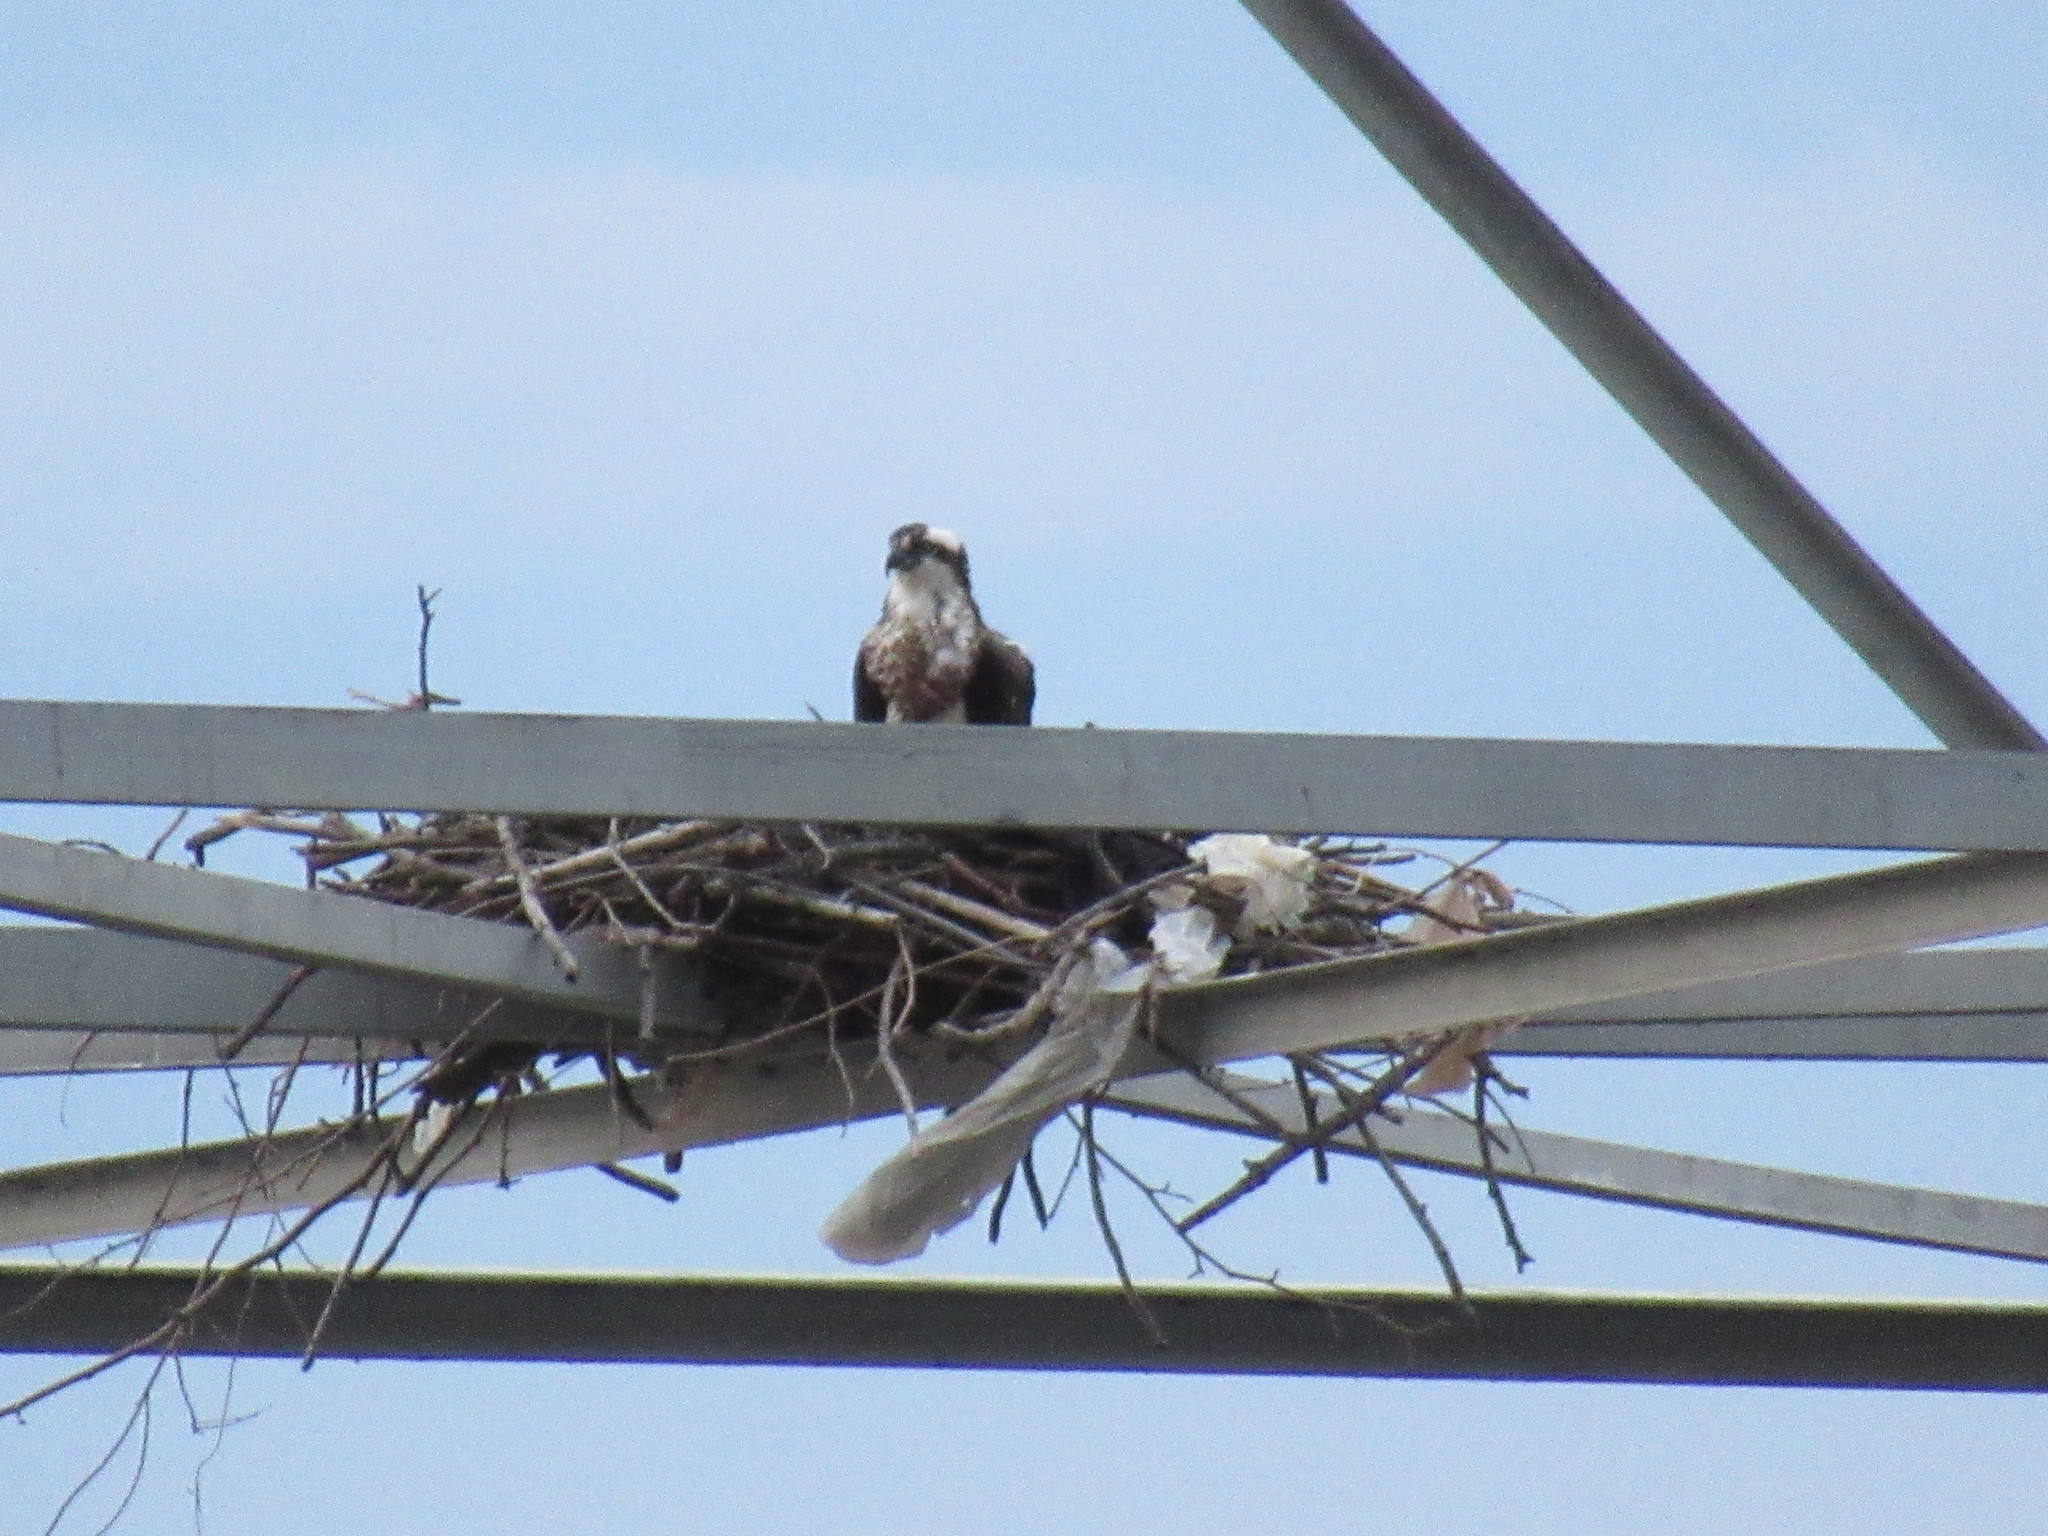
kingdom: Animalia
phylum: Chordata
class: Aves
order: Accipitriformes
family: Pandionidae
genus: Pandion
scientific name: Pandion haliaetus
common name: Osprey
